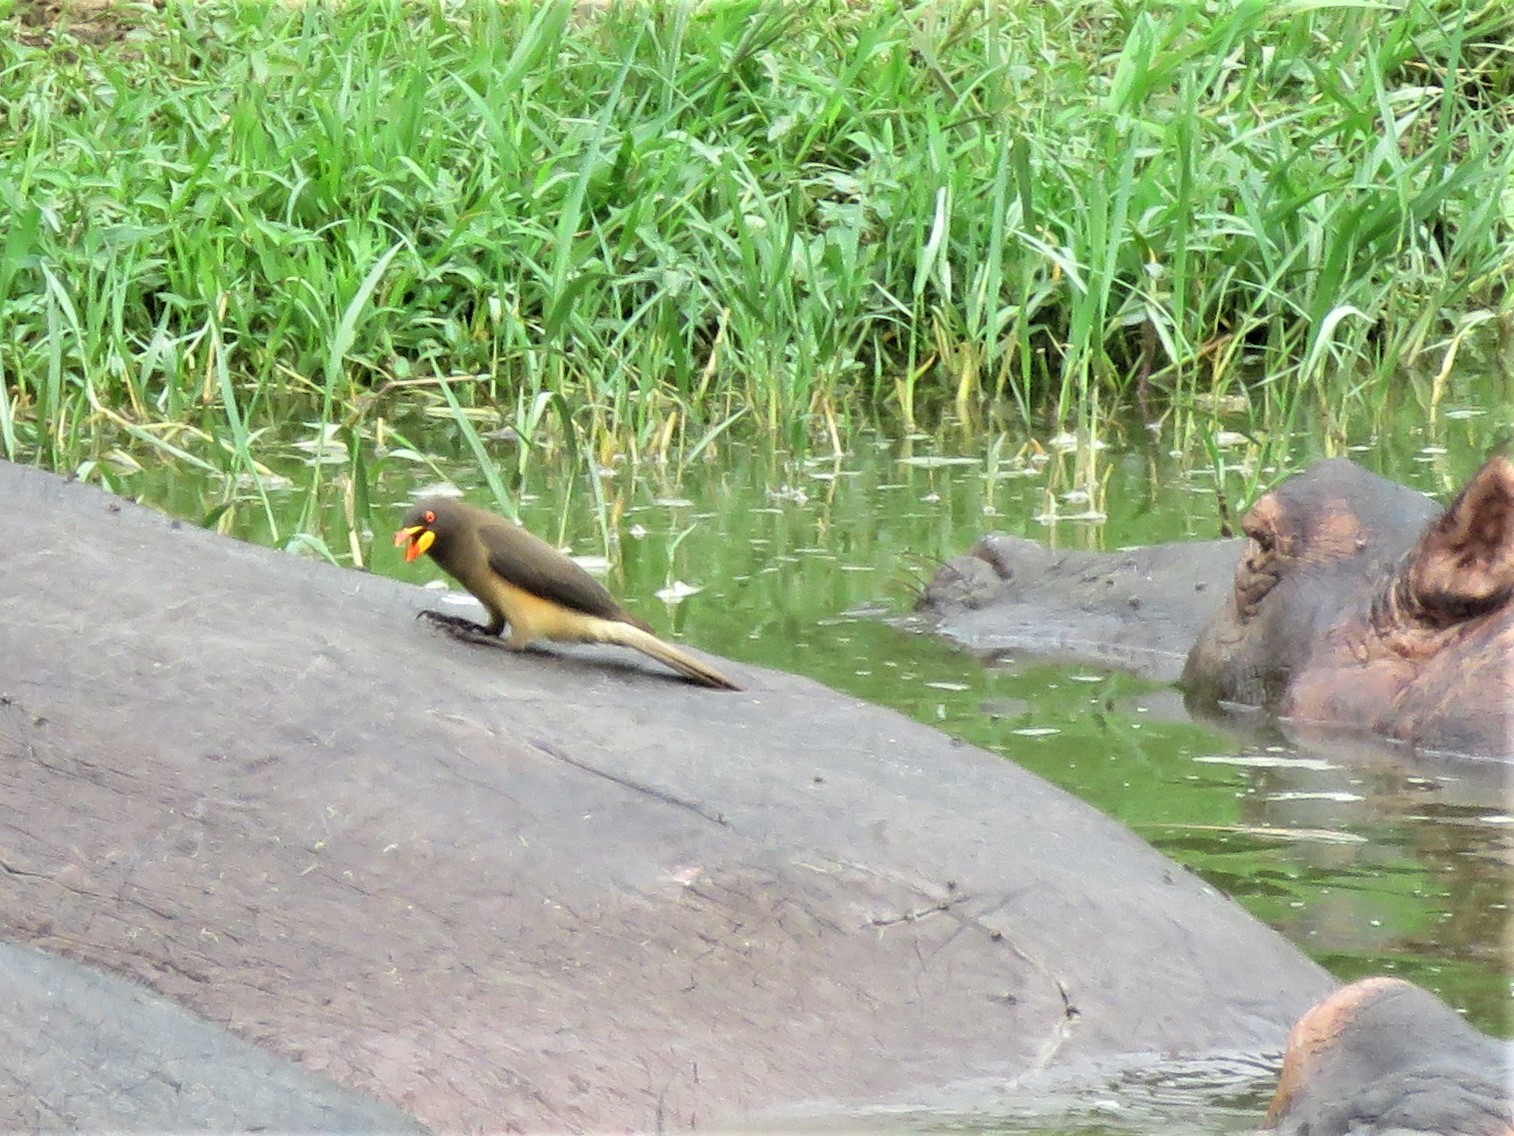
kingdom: Animalia
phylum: Chordata
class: Aves
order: Passeriformes
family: Buphagidae
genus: Buphagus
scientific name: Buphagus africanus
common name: Yellow-billed oxpecker
